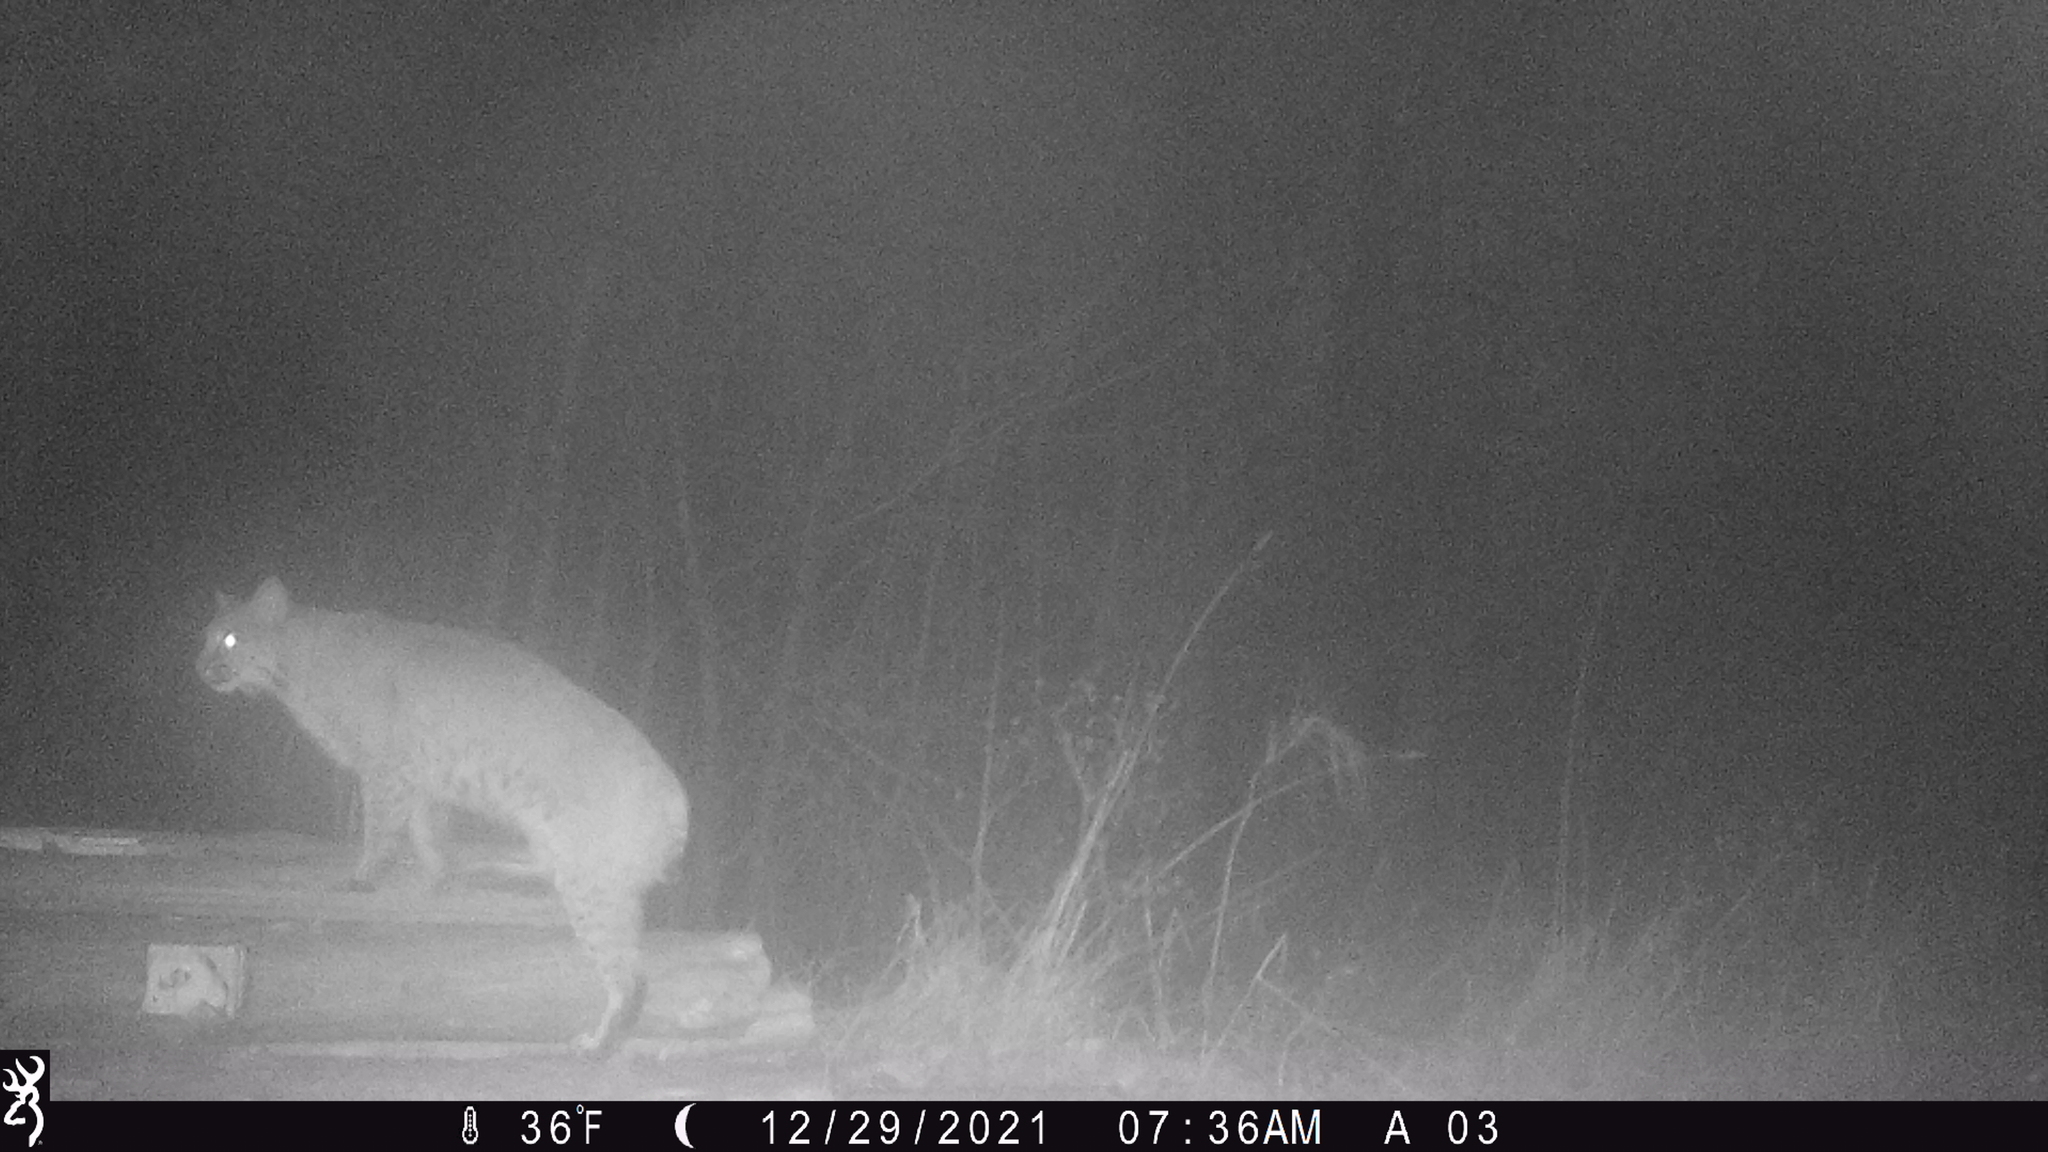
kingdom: Animalia
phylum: Chordata
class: Mammalia
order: Carnivora
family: Felidae
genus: Lynx
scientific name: Lynx rufus
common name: Bobcat
